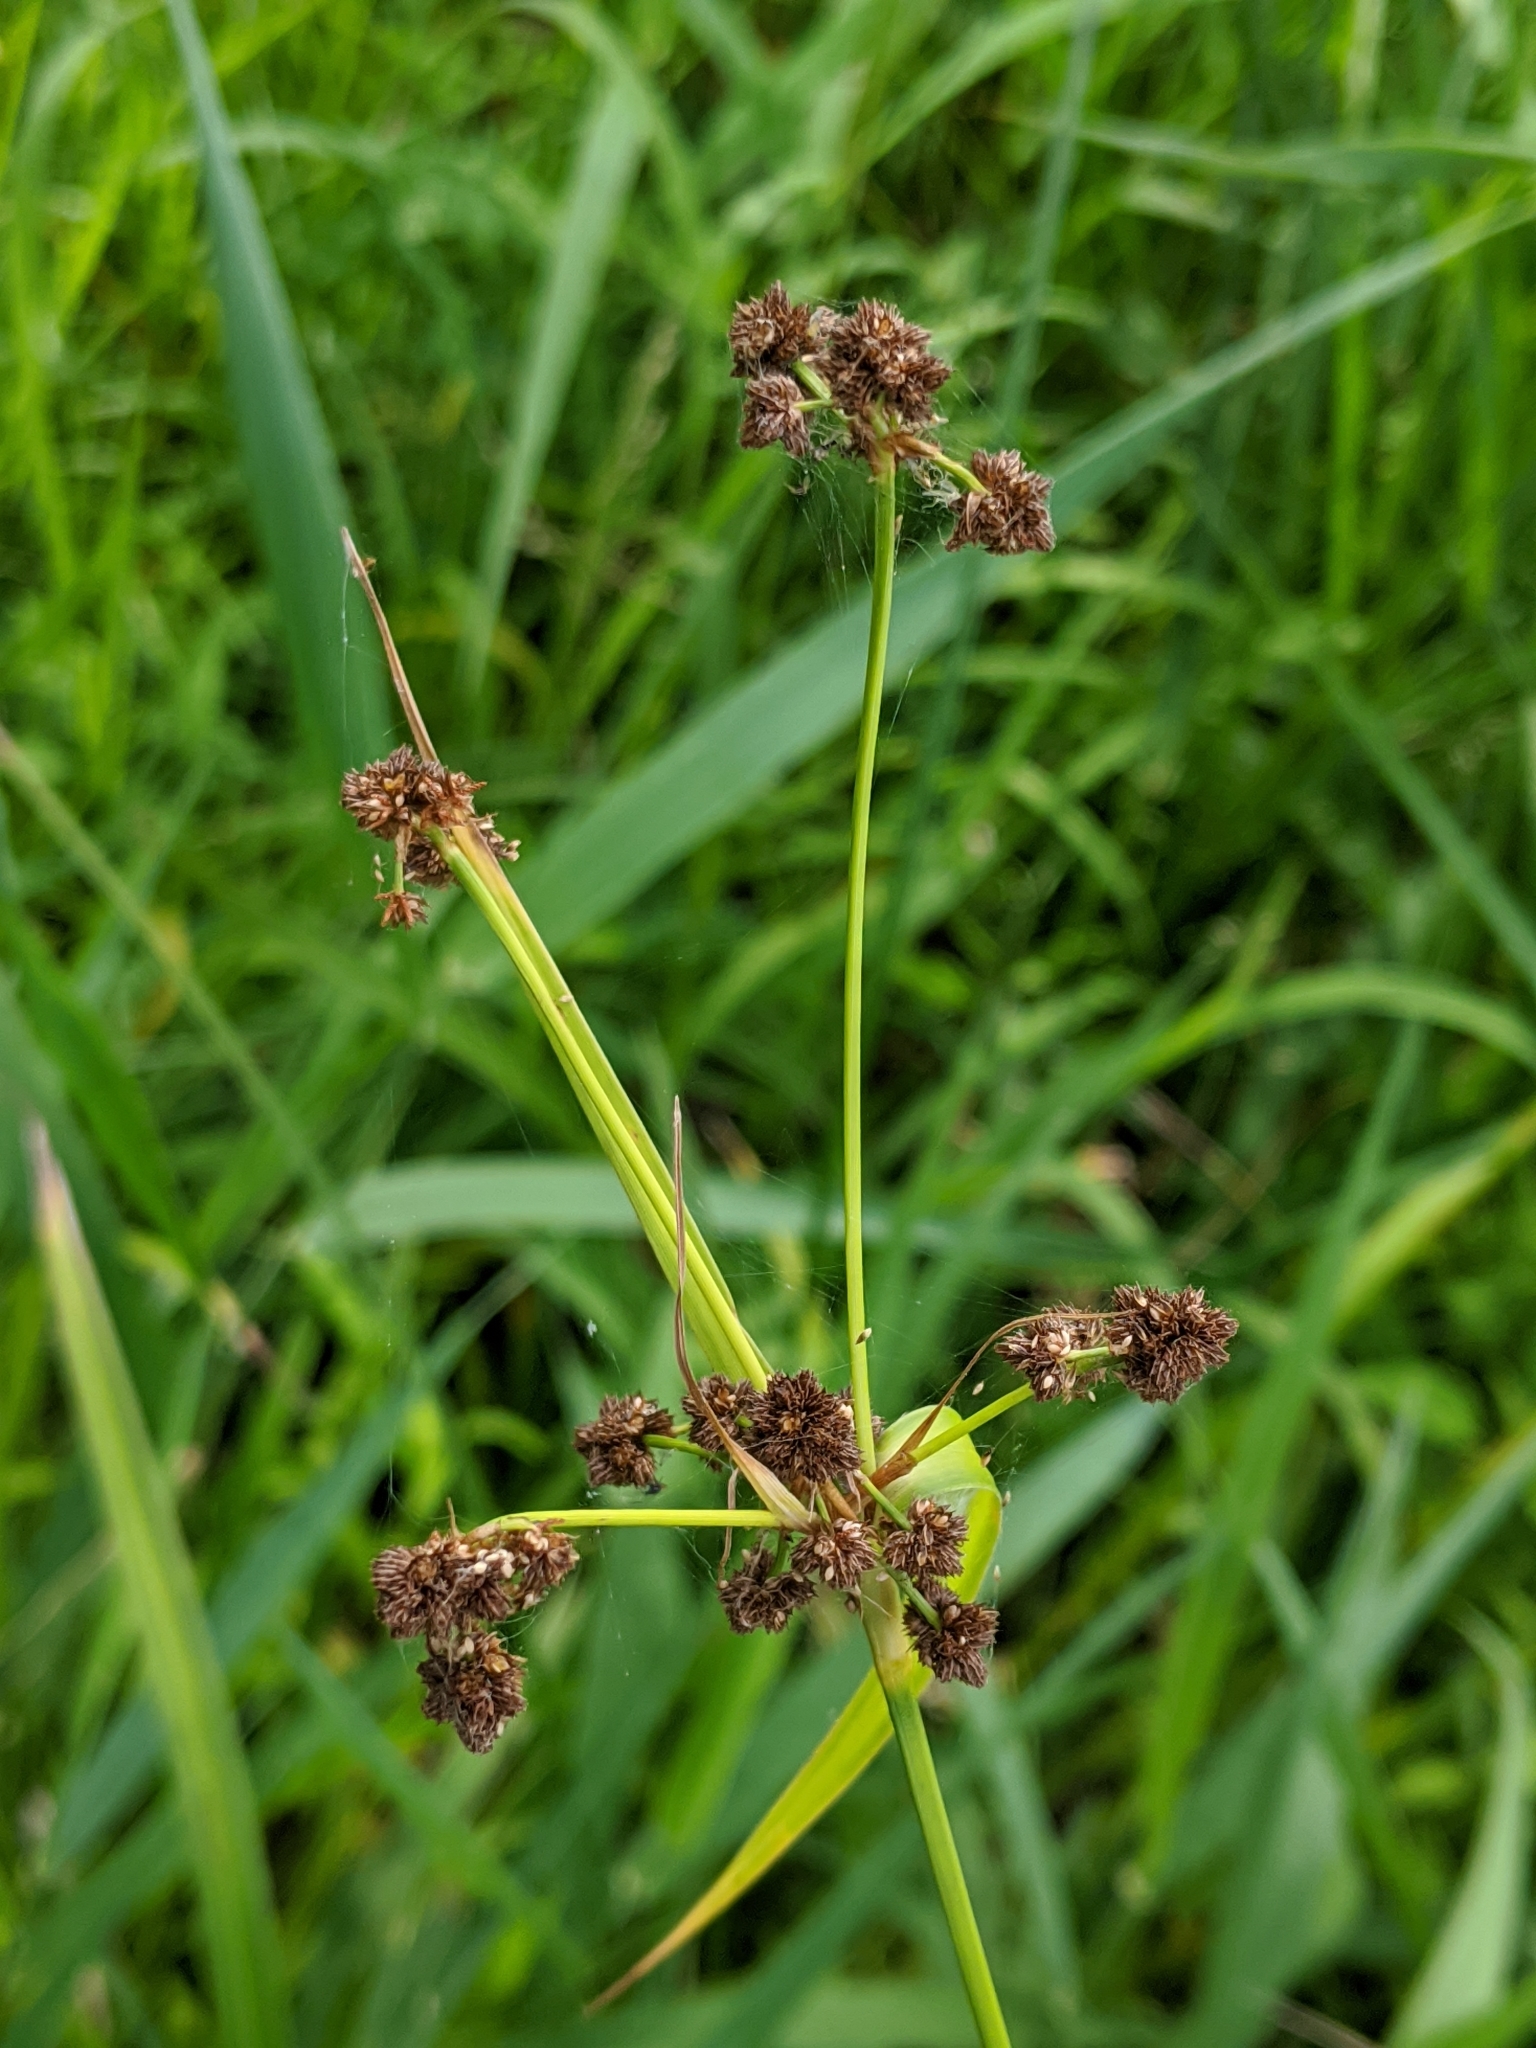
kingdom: Plantae
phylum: Tracheophyta
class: Liliopsida
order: Poales
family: Cyperaceae
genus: Scirpus
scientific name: Scirpus atrovirens
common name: Black bulrush
